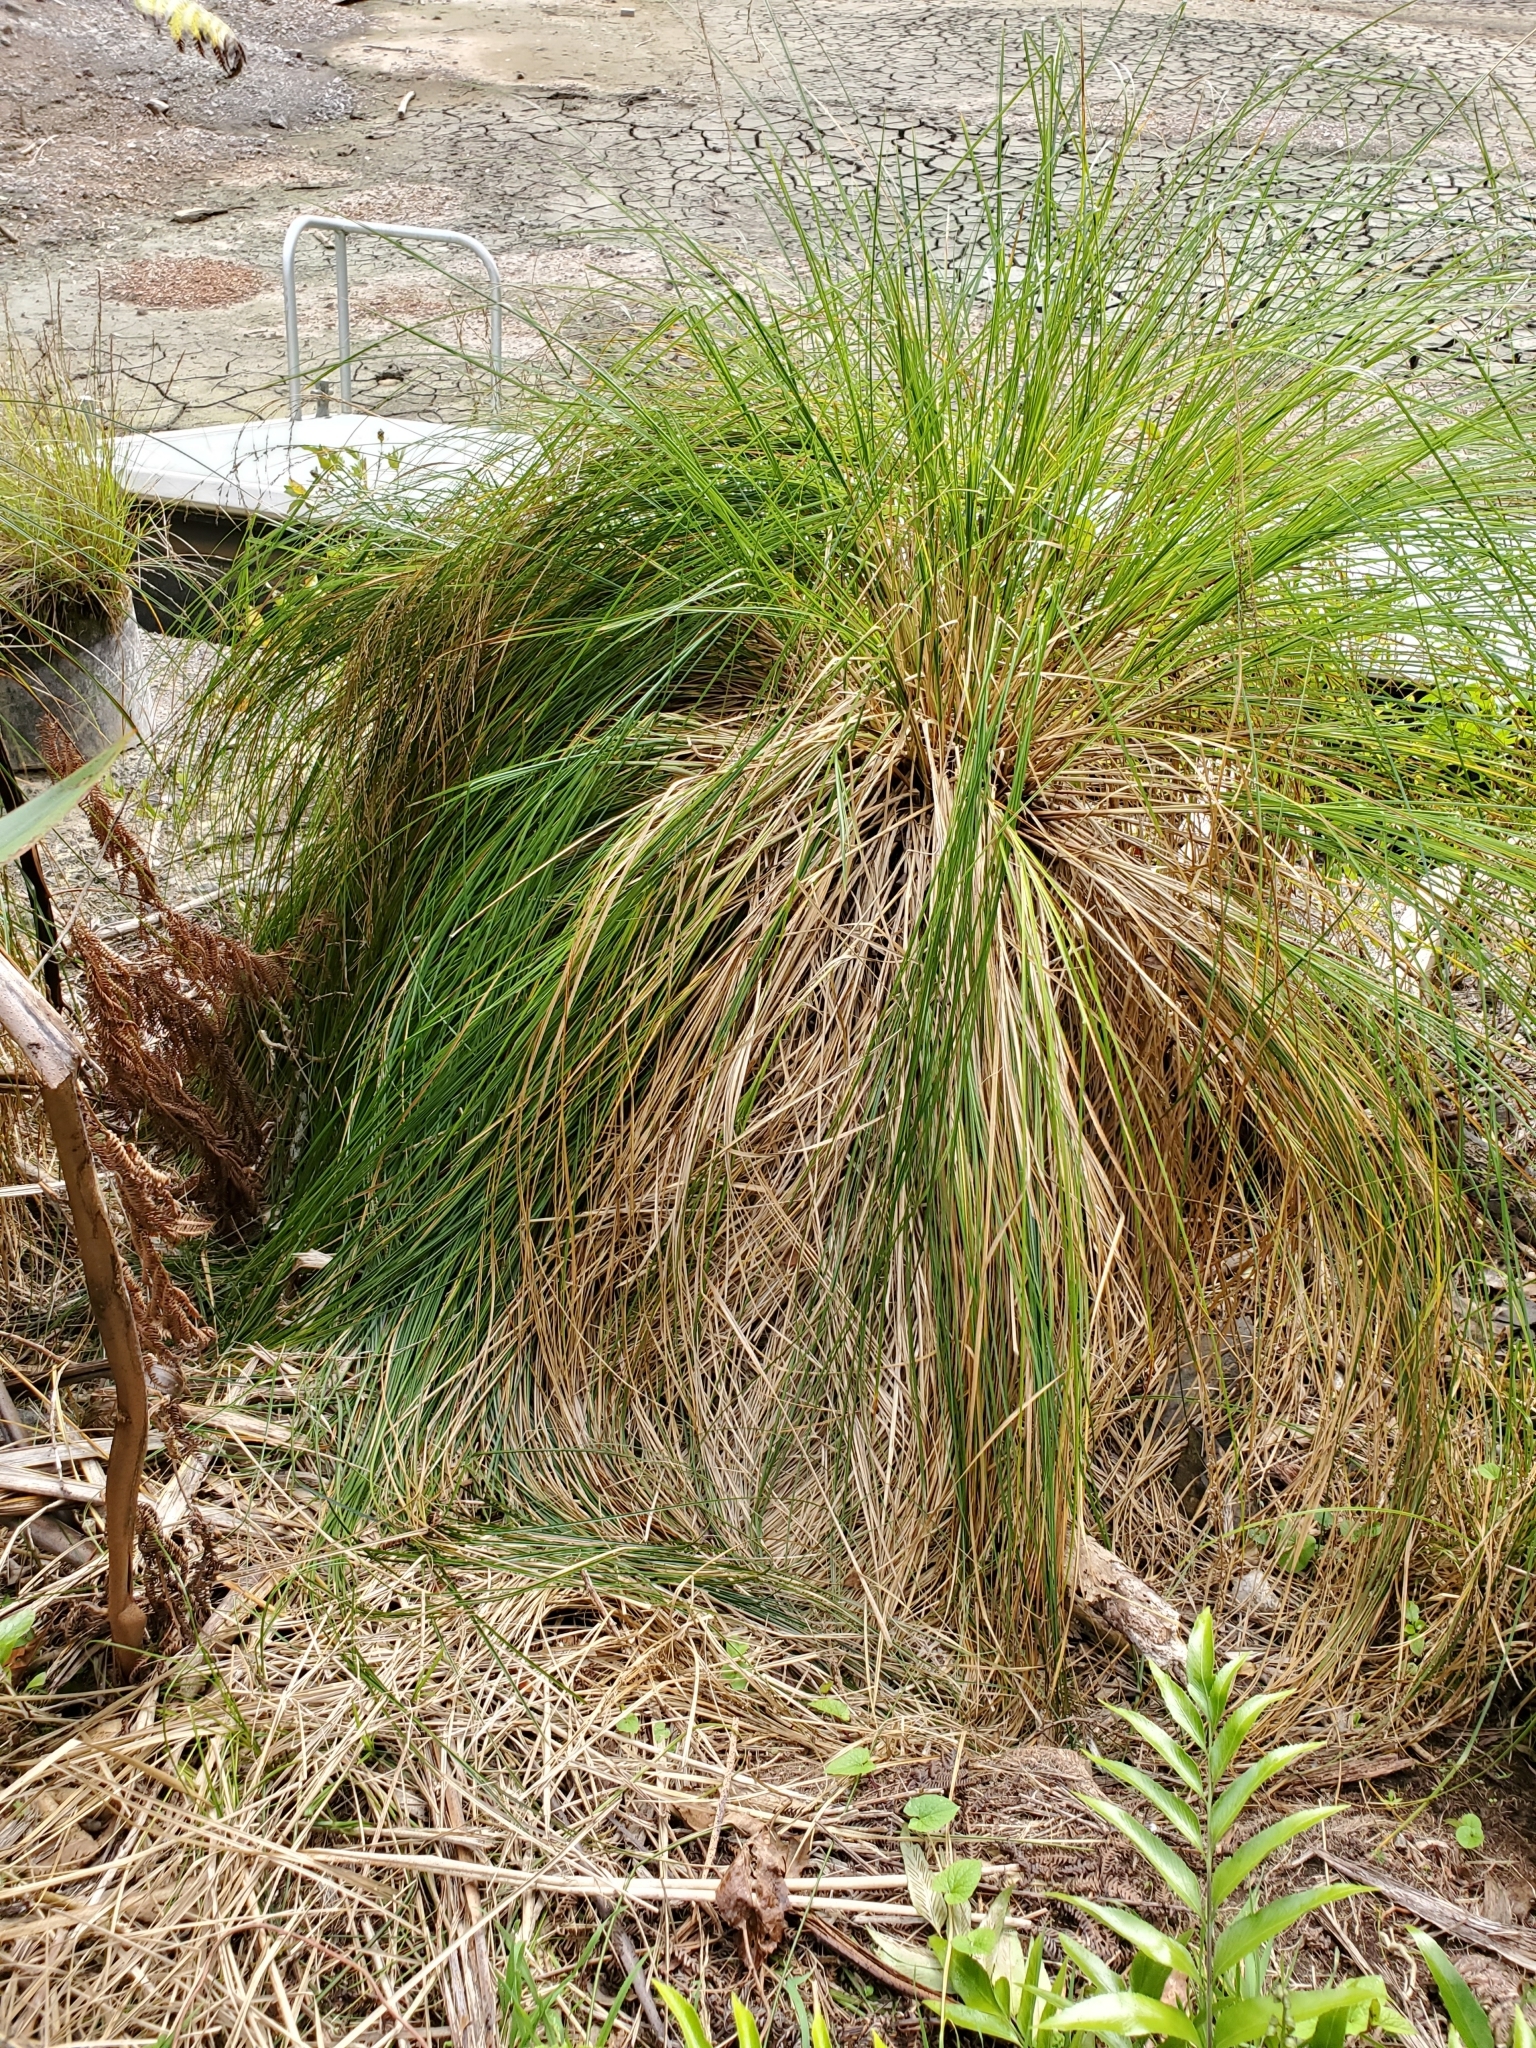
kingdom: Plantae
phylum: Tracheophyta
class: Liliopsida
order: Poales
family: Cyperaceae
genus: Carex
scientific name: Carex secta
